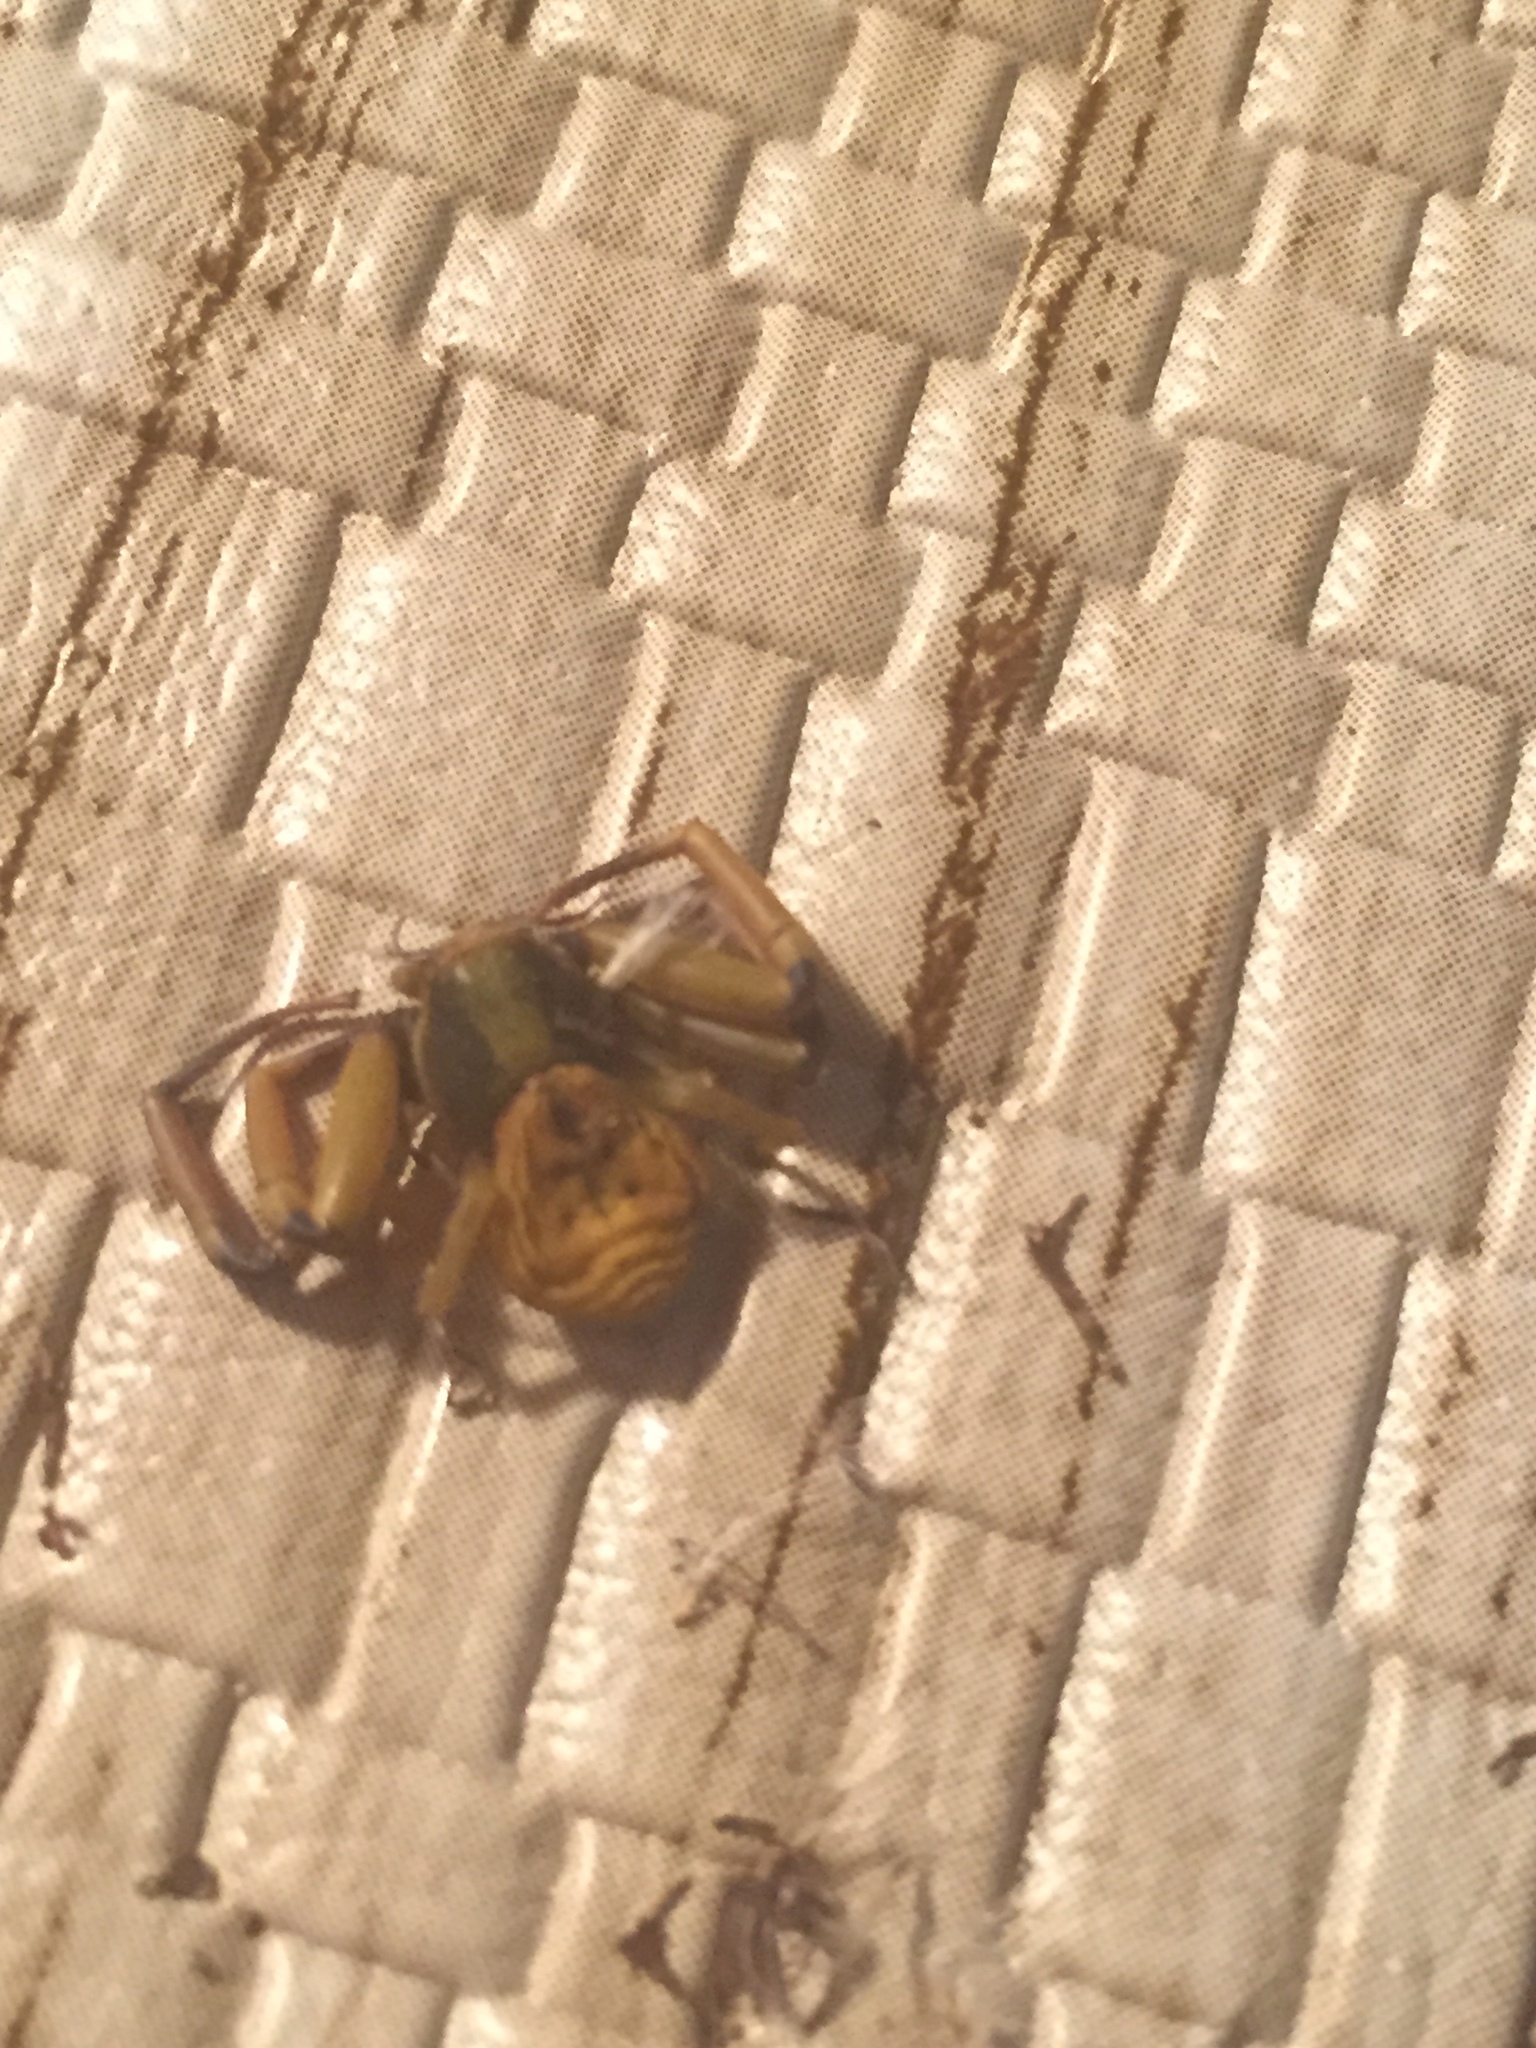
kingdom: Animalia
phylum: Arthropoda
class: Arachnida
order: Araneae
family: Thomisidae
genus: Misumenoides
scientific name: Misumenoides formosipes
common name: White-banded crab spider
